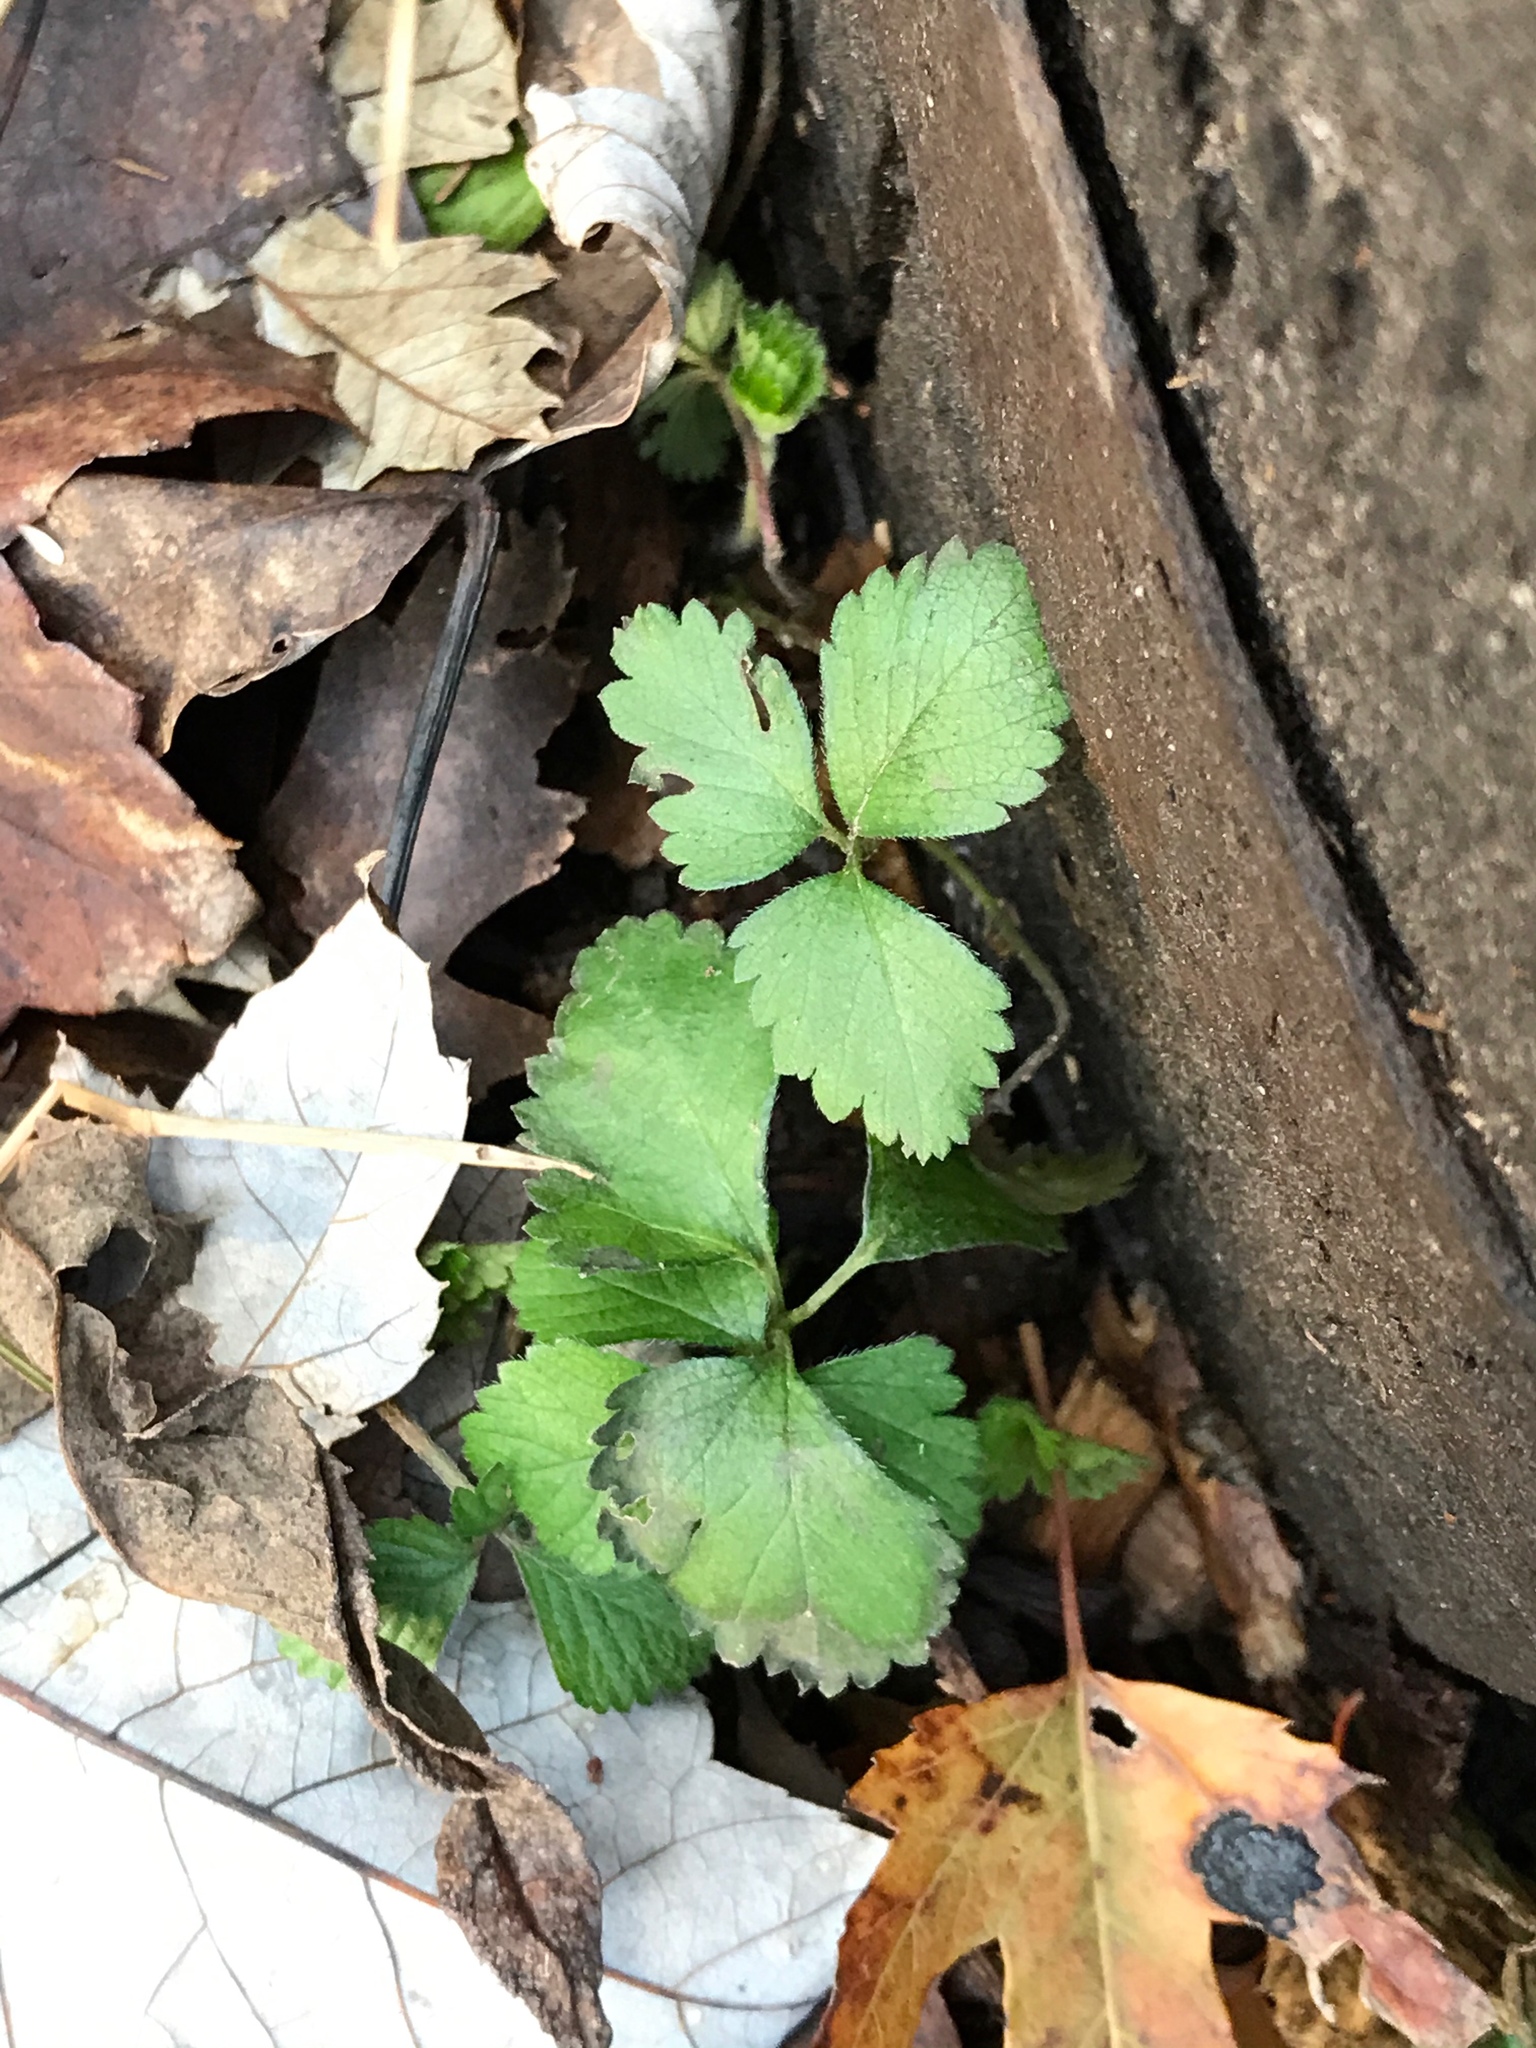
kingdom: Plantae
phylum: Tracheophyta
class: Magnoliopsida
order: Rosales
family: Rosaceae
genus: Potentilla
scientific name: Potentilla indica
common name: Yellow-flowered strawberry
